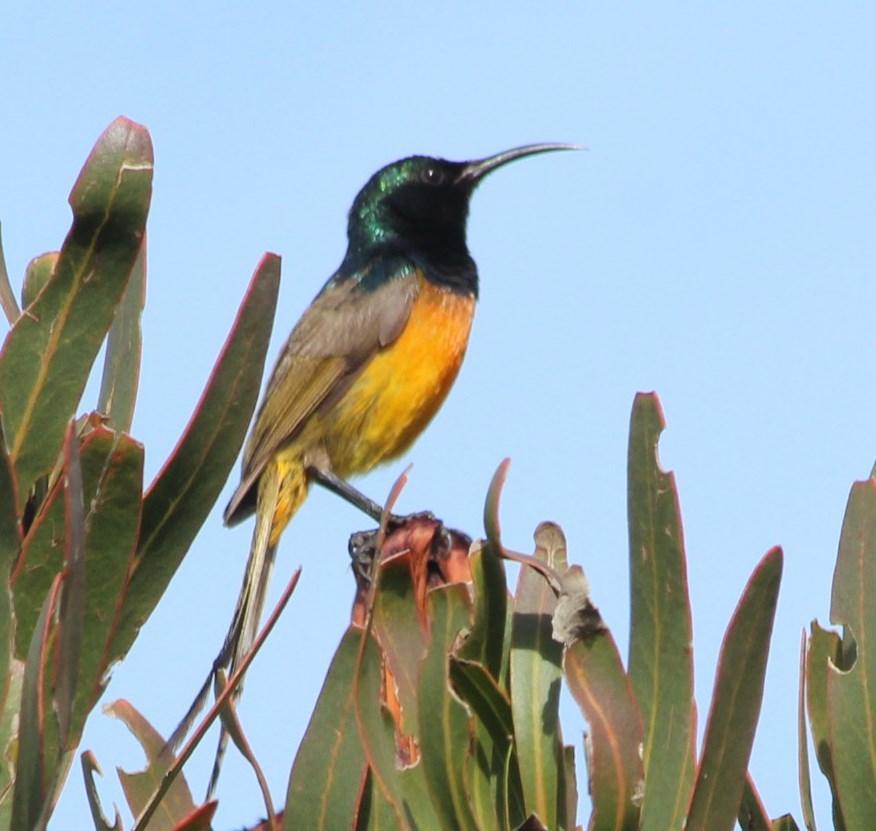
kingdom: Animalia
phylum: Chordata
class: Aves
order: Passeriformes
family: Nectariniidae
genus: Anthobaphes
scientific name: Anthobaphes violacea
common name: Orange-breasted sunbird
